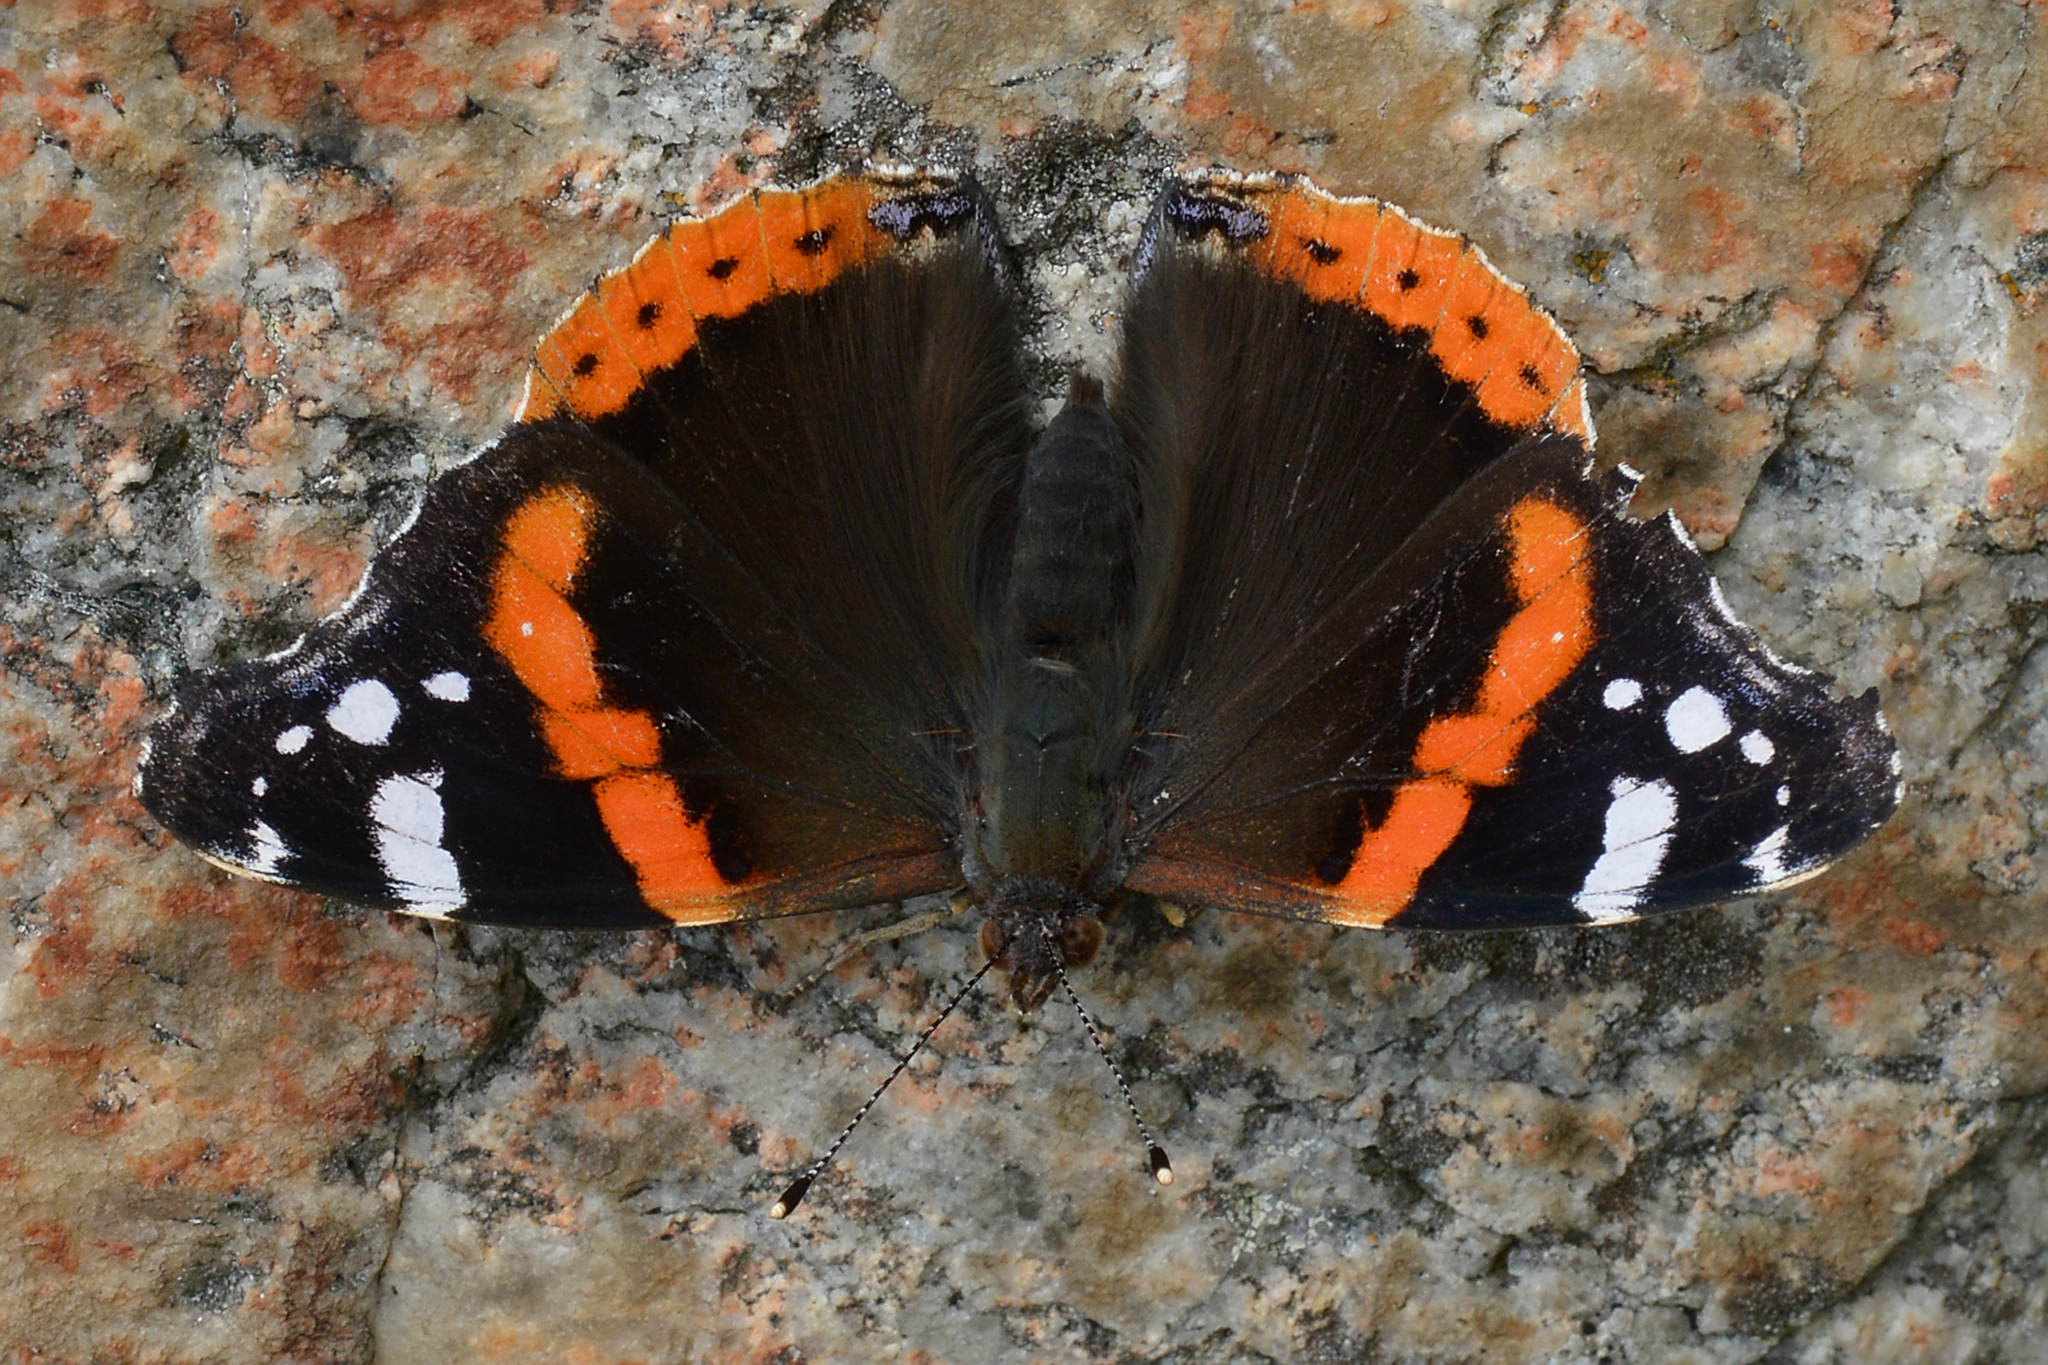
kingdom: Animalia
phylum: Arthropoda
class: Insecta
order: Lepidoptera
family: Nymphalidae
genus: Vanessa
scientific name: Vanessa atalanta
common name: Red admiral
